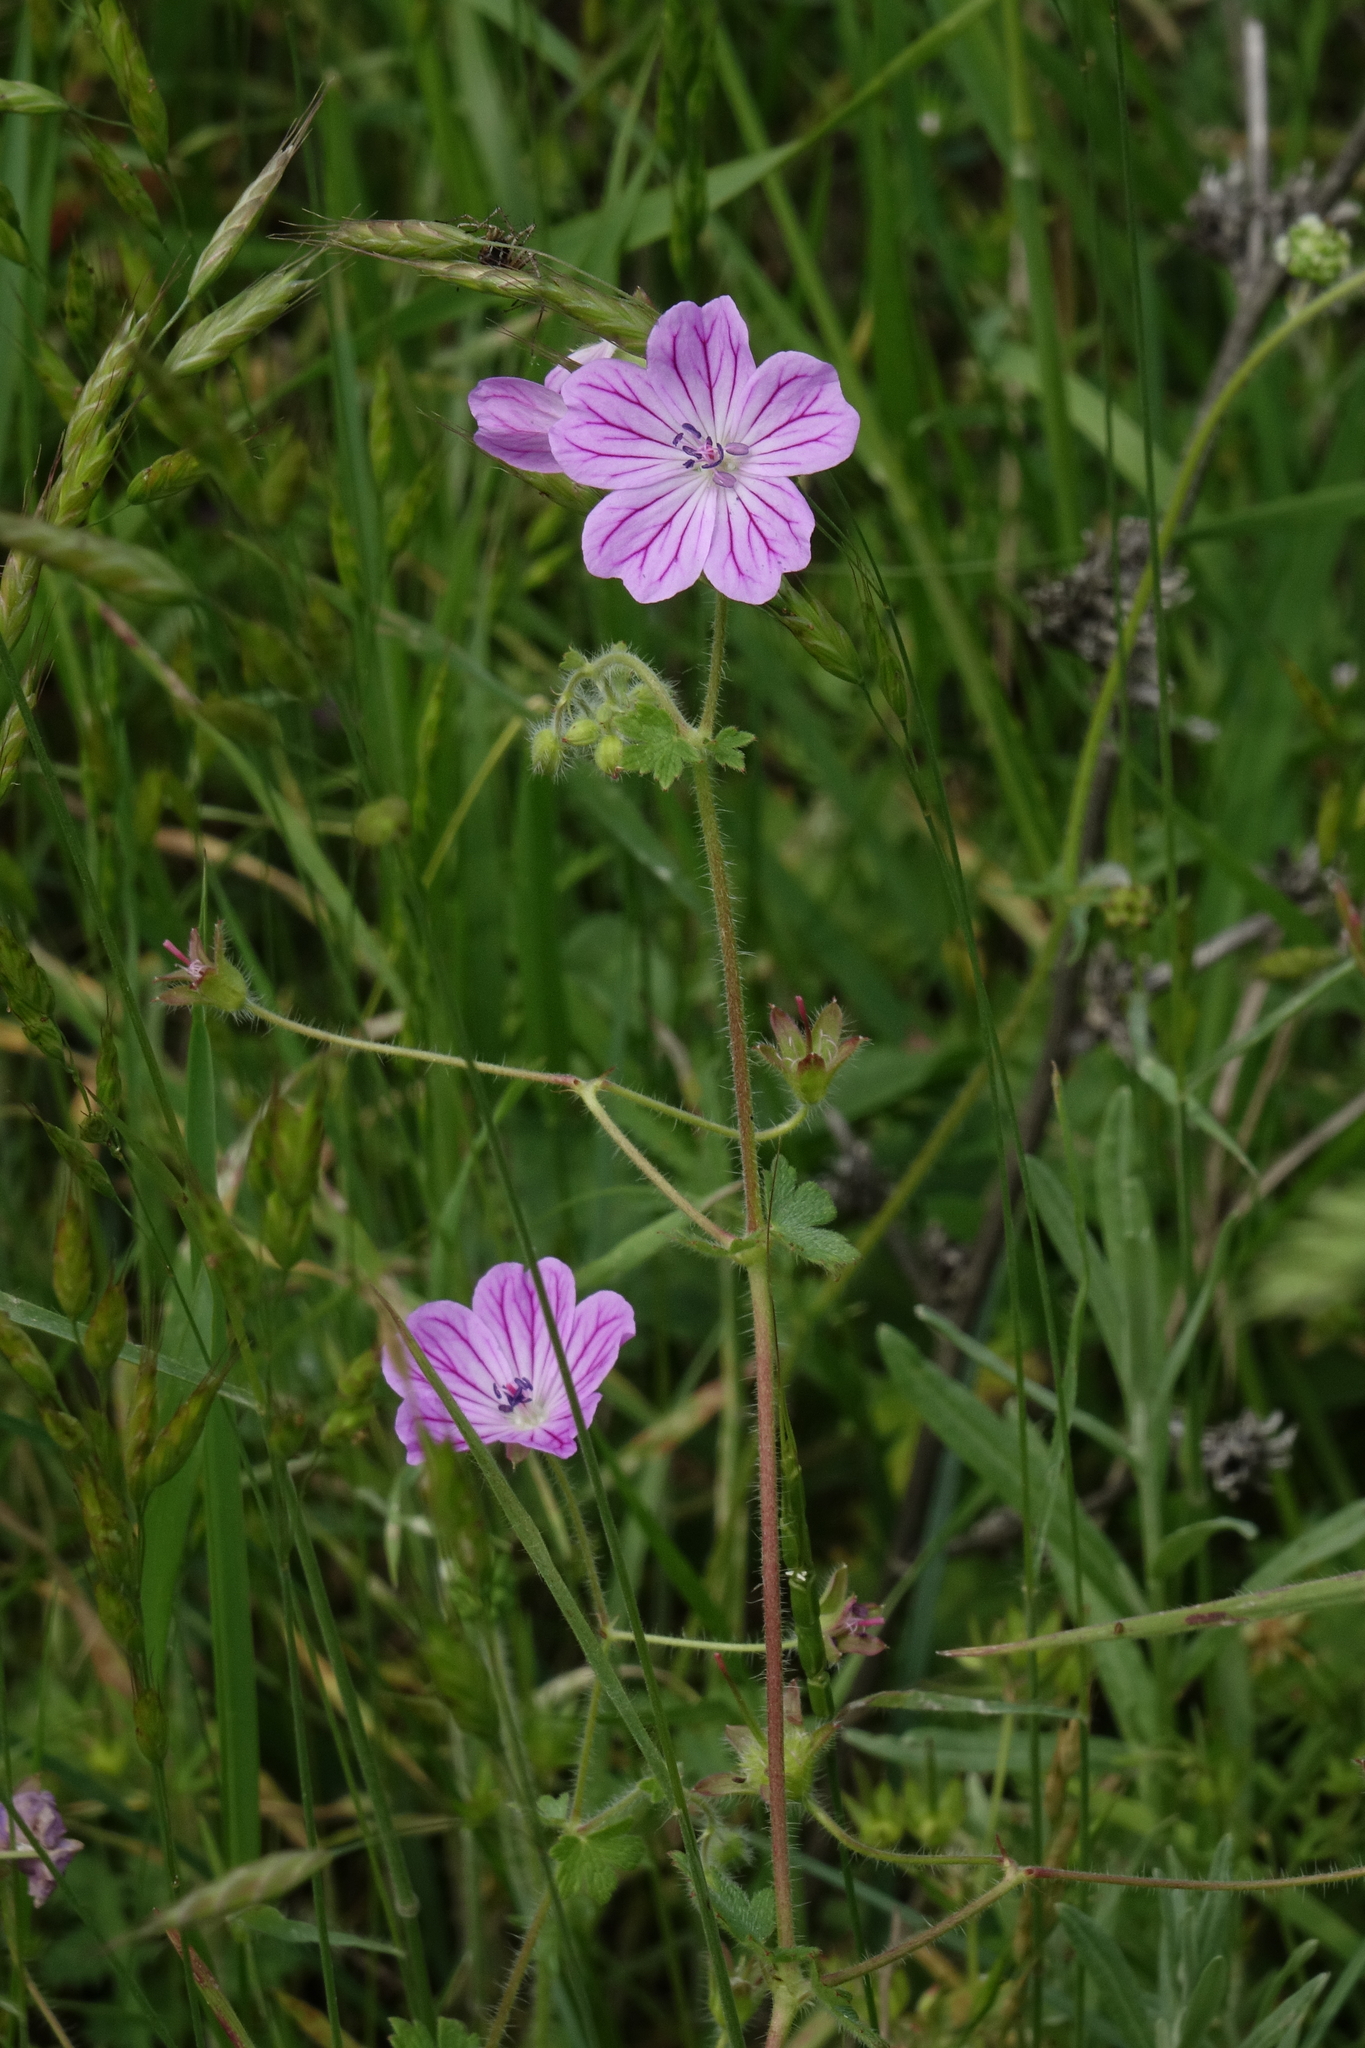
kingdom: Plantae
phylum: Tracheophyta
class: Magnoliopsida
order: Geraniales
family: Geraniaceae
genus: Geranium
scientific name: Geranium albanum
